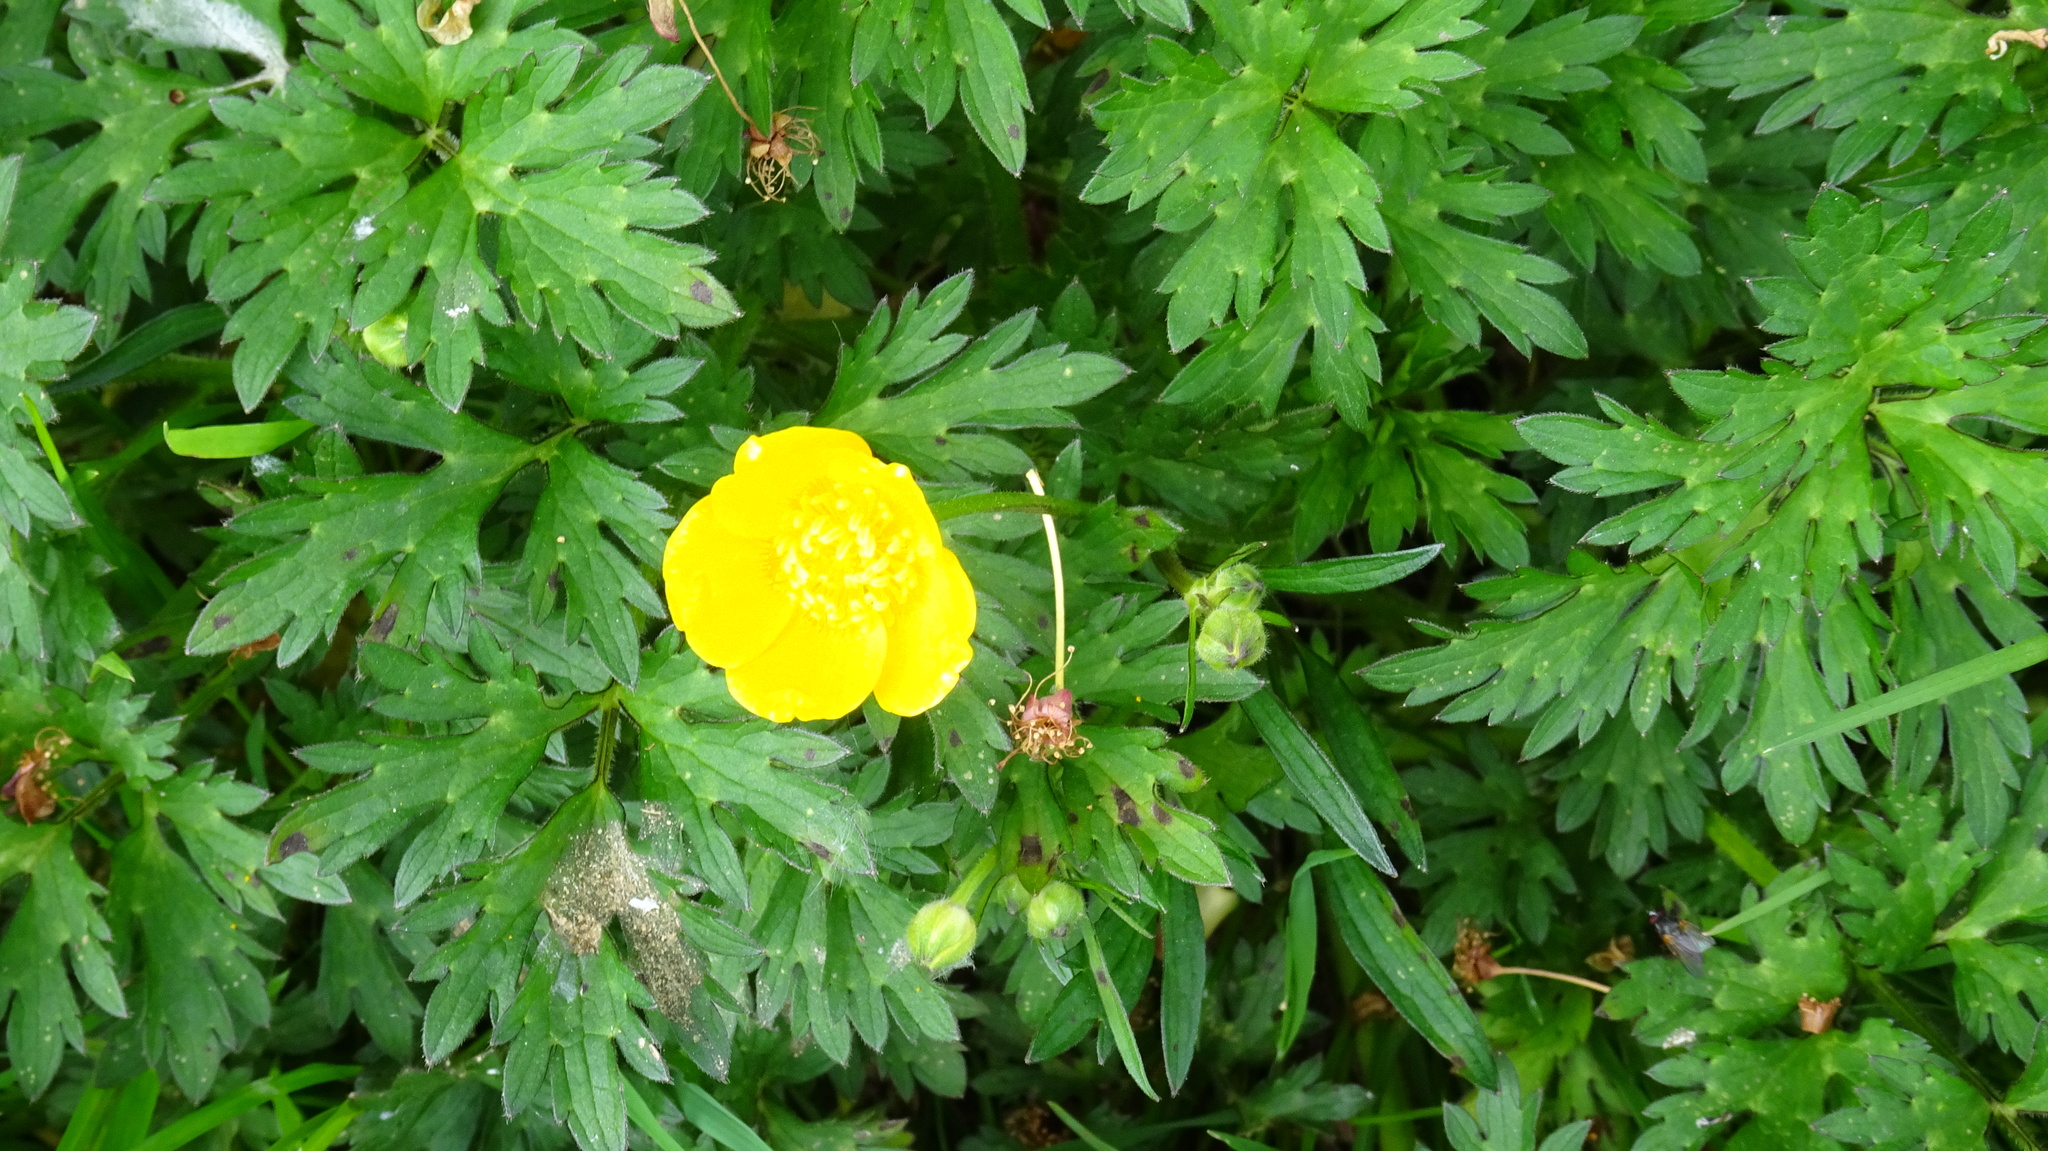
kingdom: Plantae
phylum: Tracheophyta
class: Magnoliopsida
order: Ranunculales
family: Ranunculaceae
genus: Ranunculus
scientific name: Ranunculus bulbosus
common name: Bulbous buttercup
